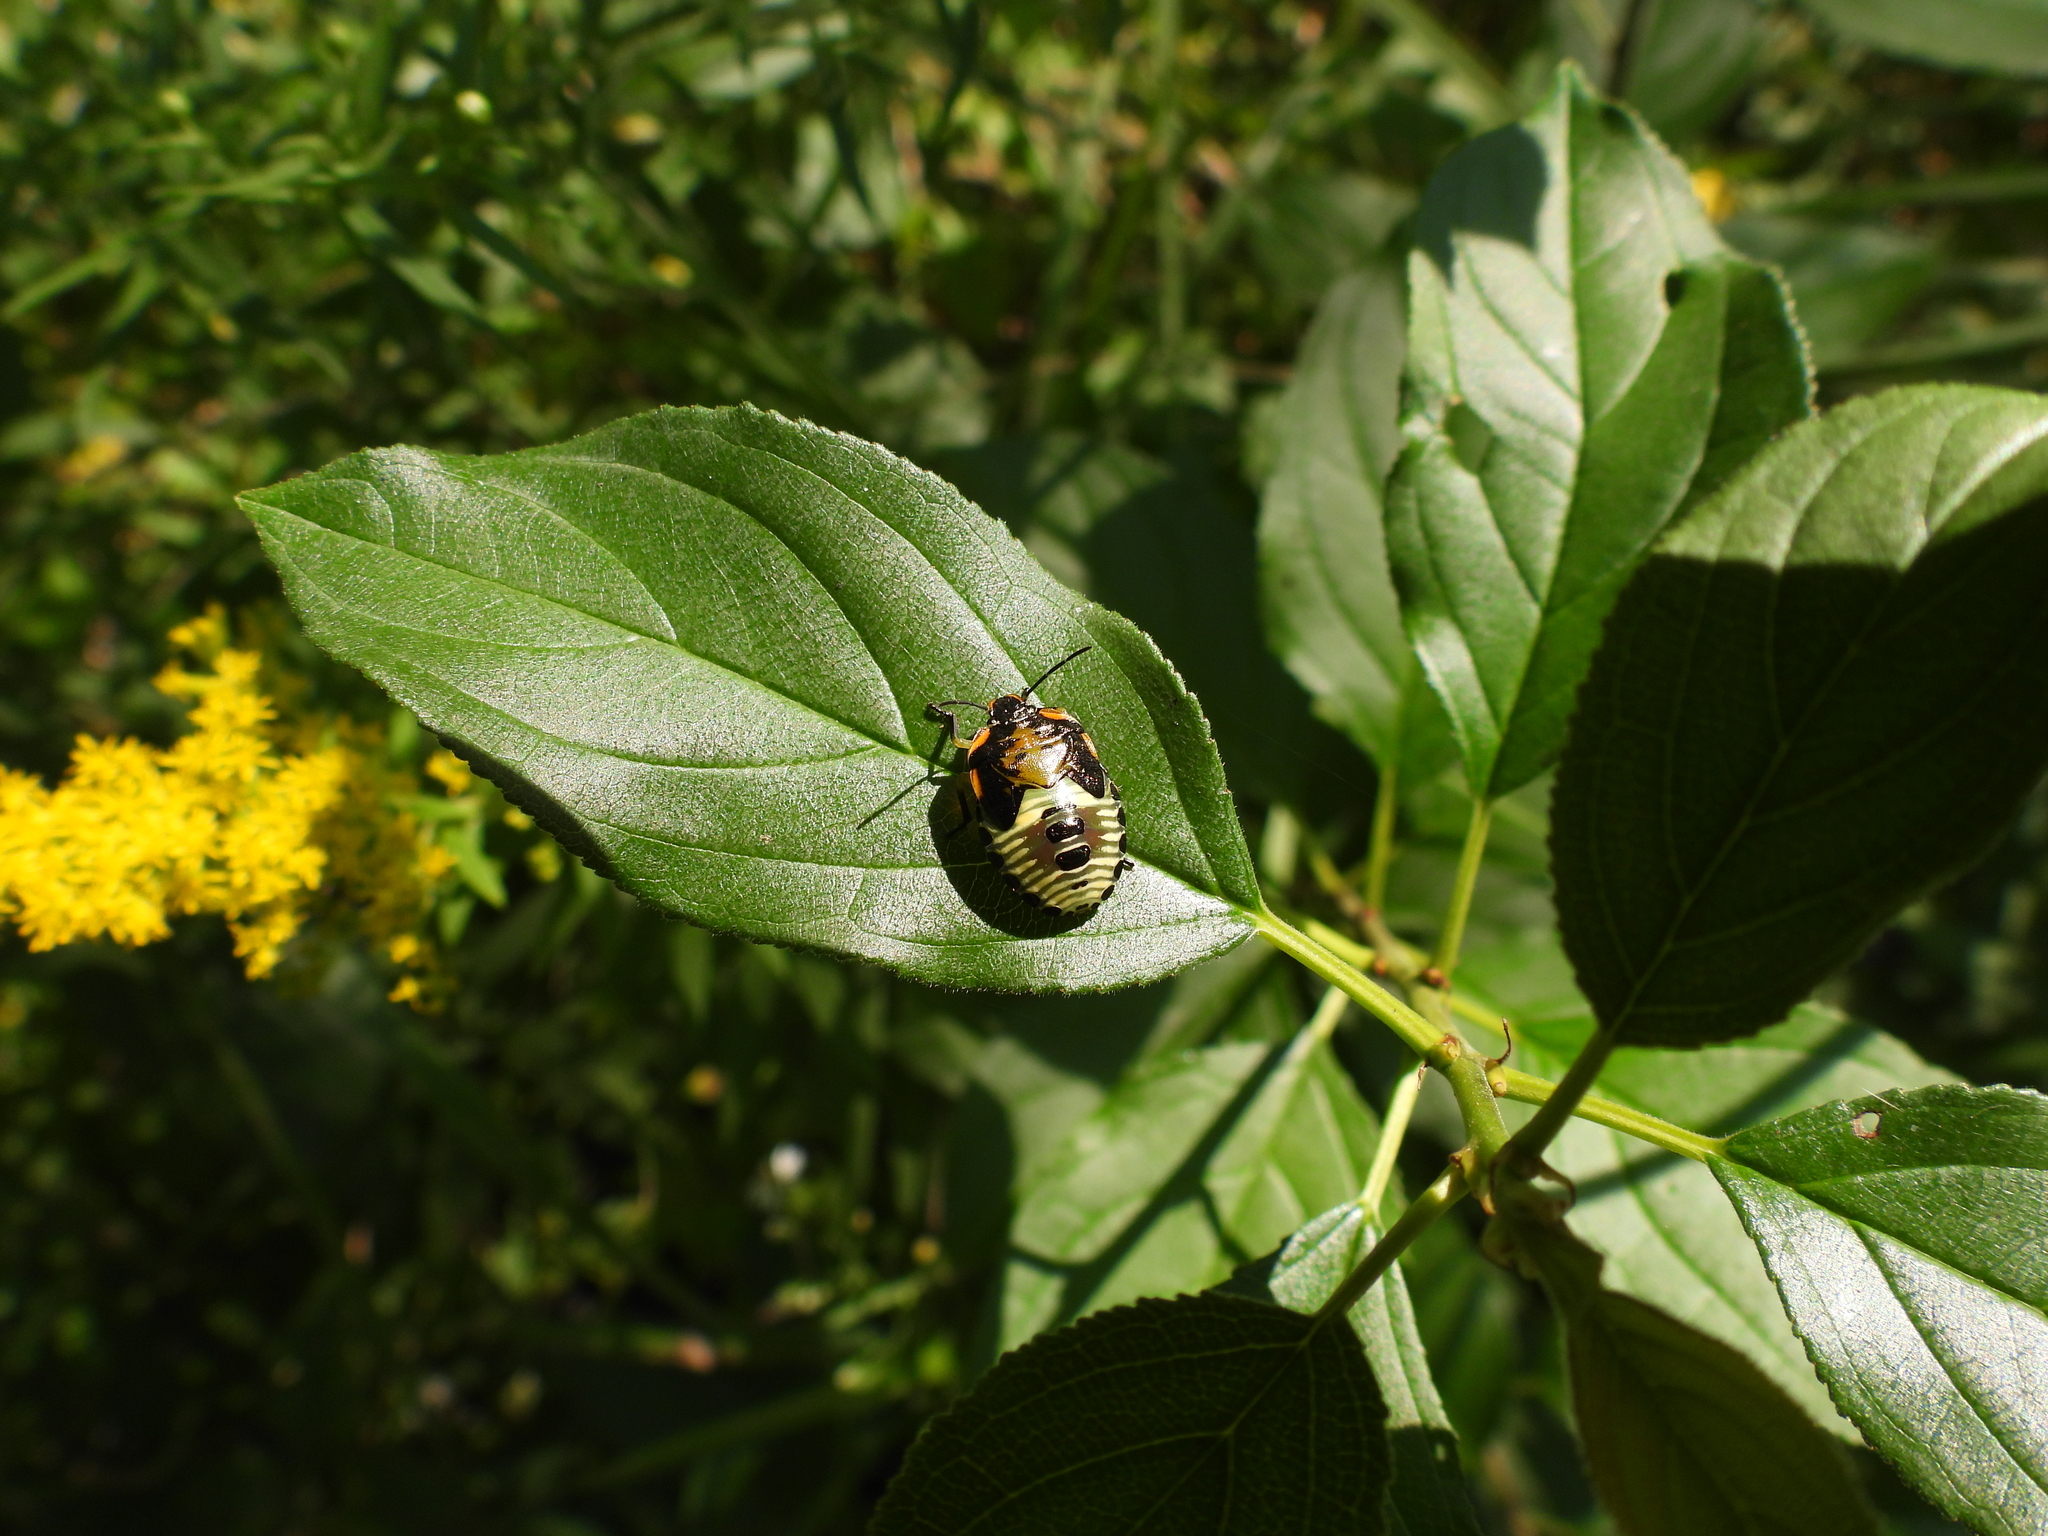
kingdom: Animalia
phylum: Arthropoda
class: Insecta
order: Hemiptera
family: Pentatomidae
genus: Chinavia
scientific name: Chinavia hilaris
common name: Green stink bug
